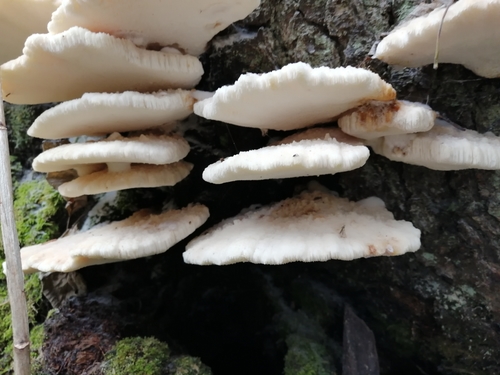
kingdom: Fungi
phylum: Basidiomycota
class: Agaricomycetes
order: Polyporales
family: Fomitopsidaceae
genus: Climacocystis
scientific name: Climacocystis borealis
